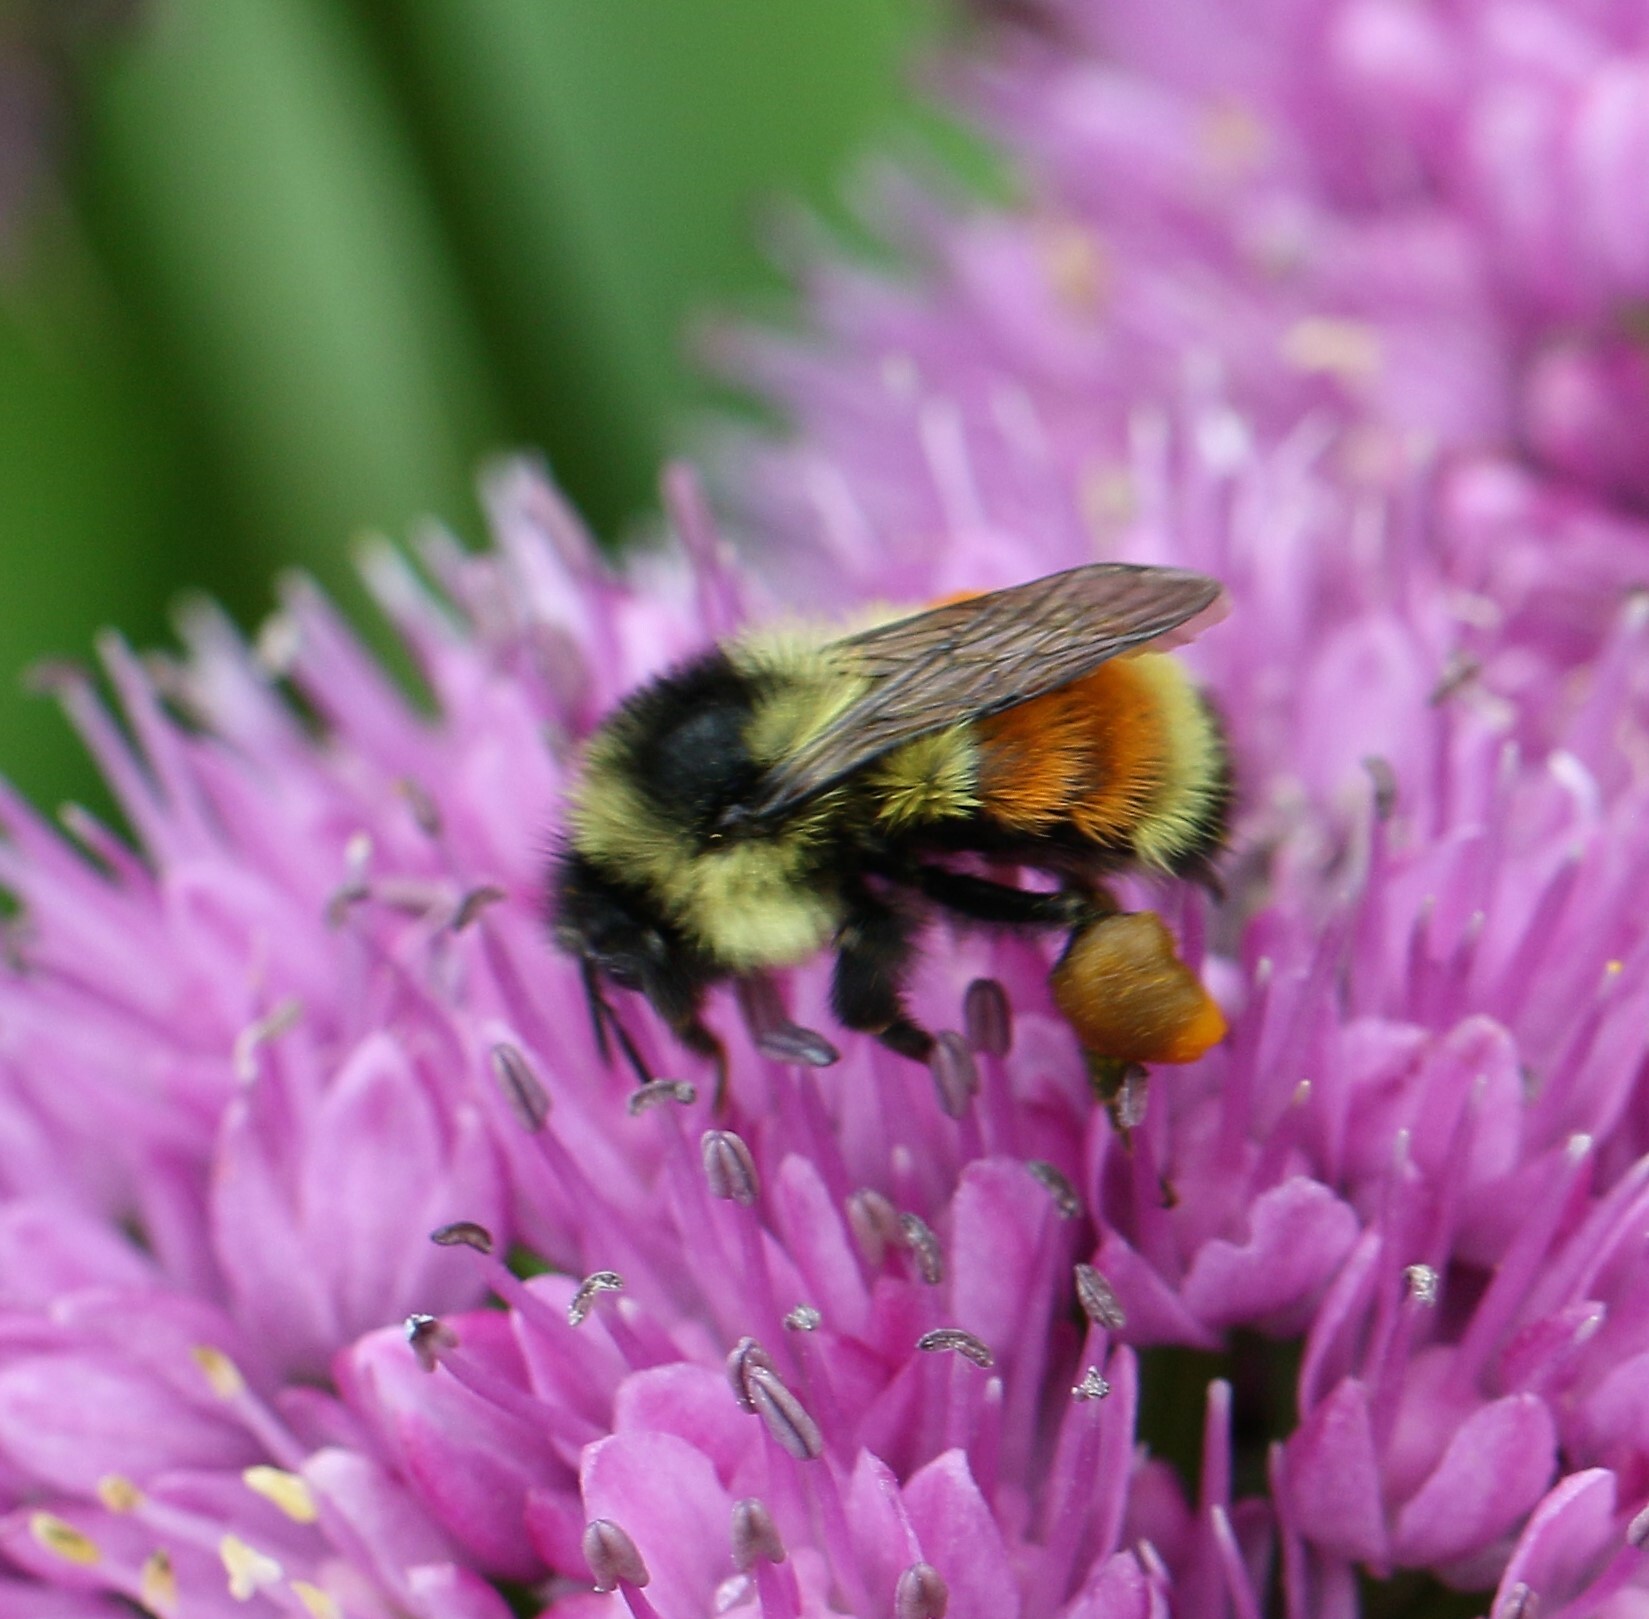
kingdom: Animalia
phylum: Arthropoda
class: Insecta
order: Hymenoptera
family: Apidae
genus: Bombus
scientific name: Bombus ternarius
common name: Tri-colored bumble bee
